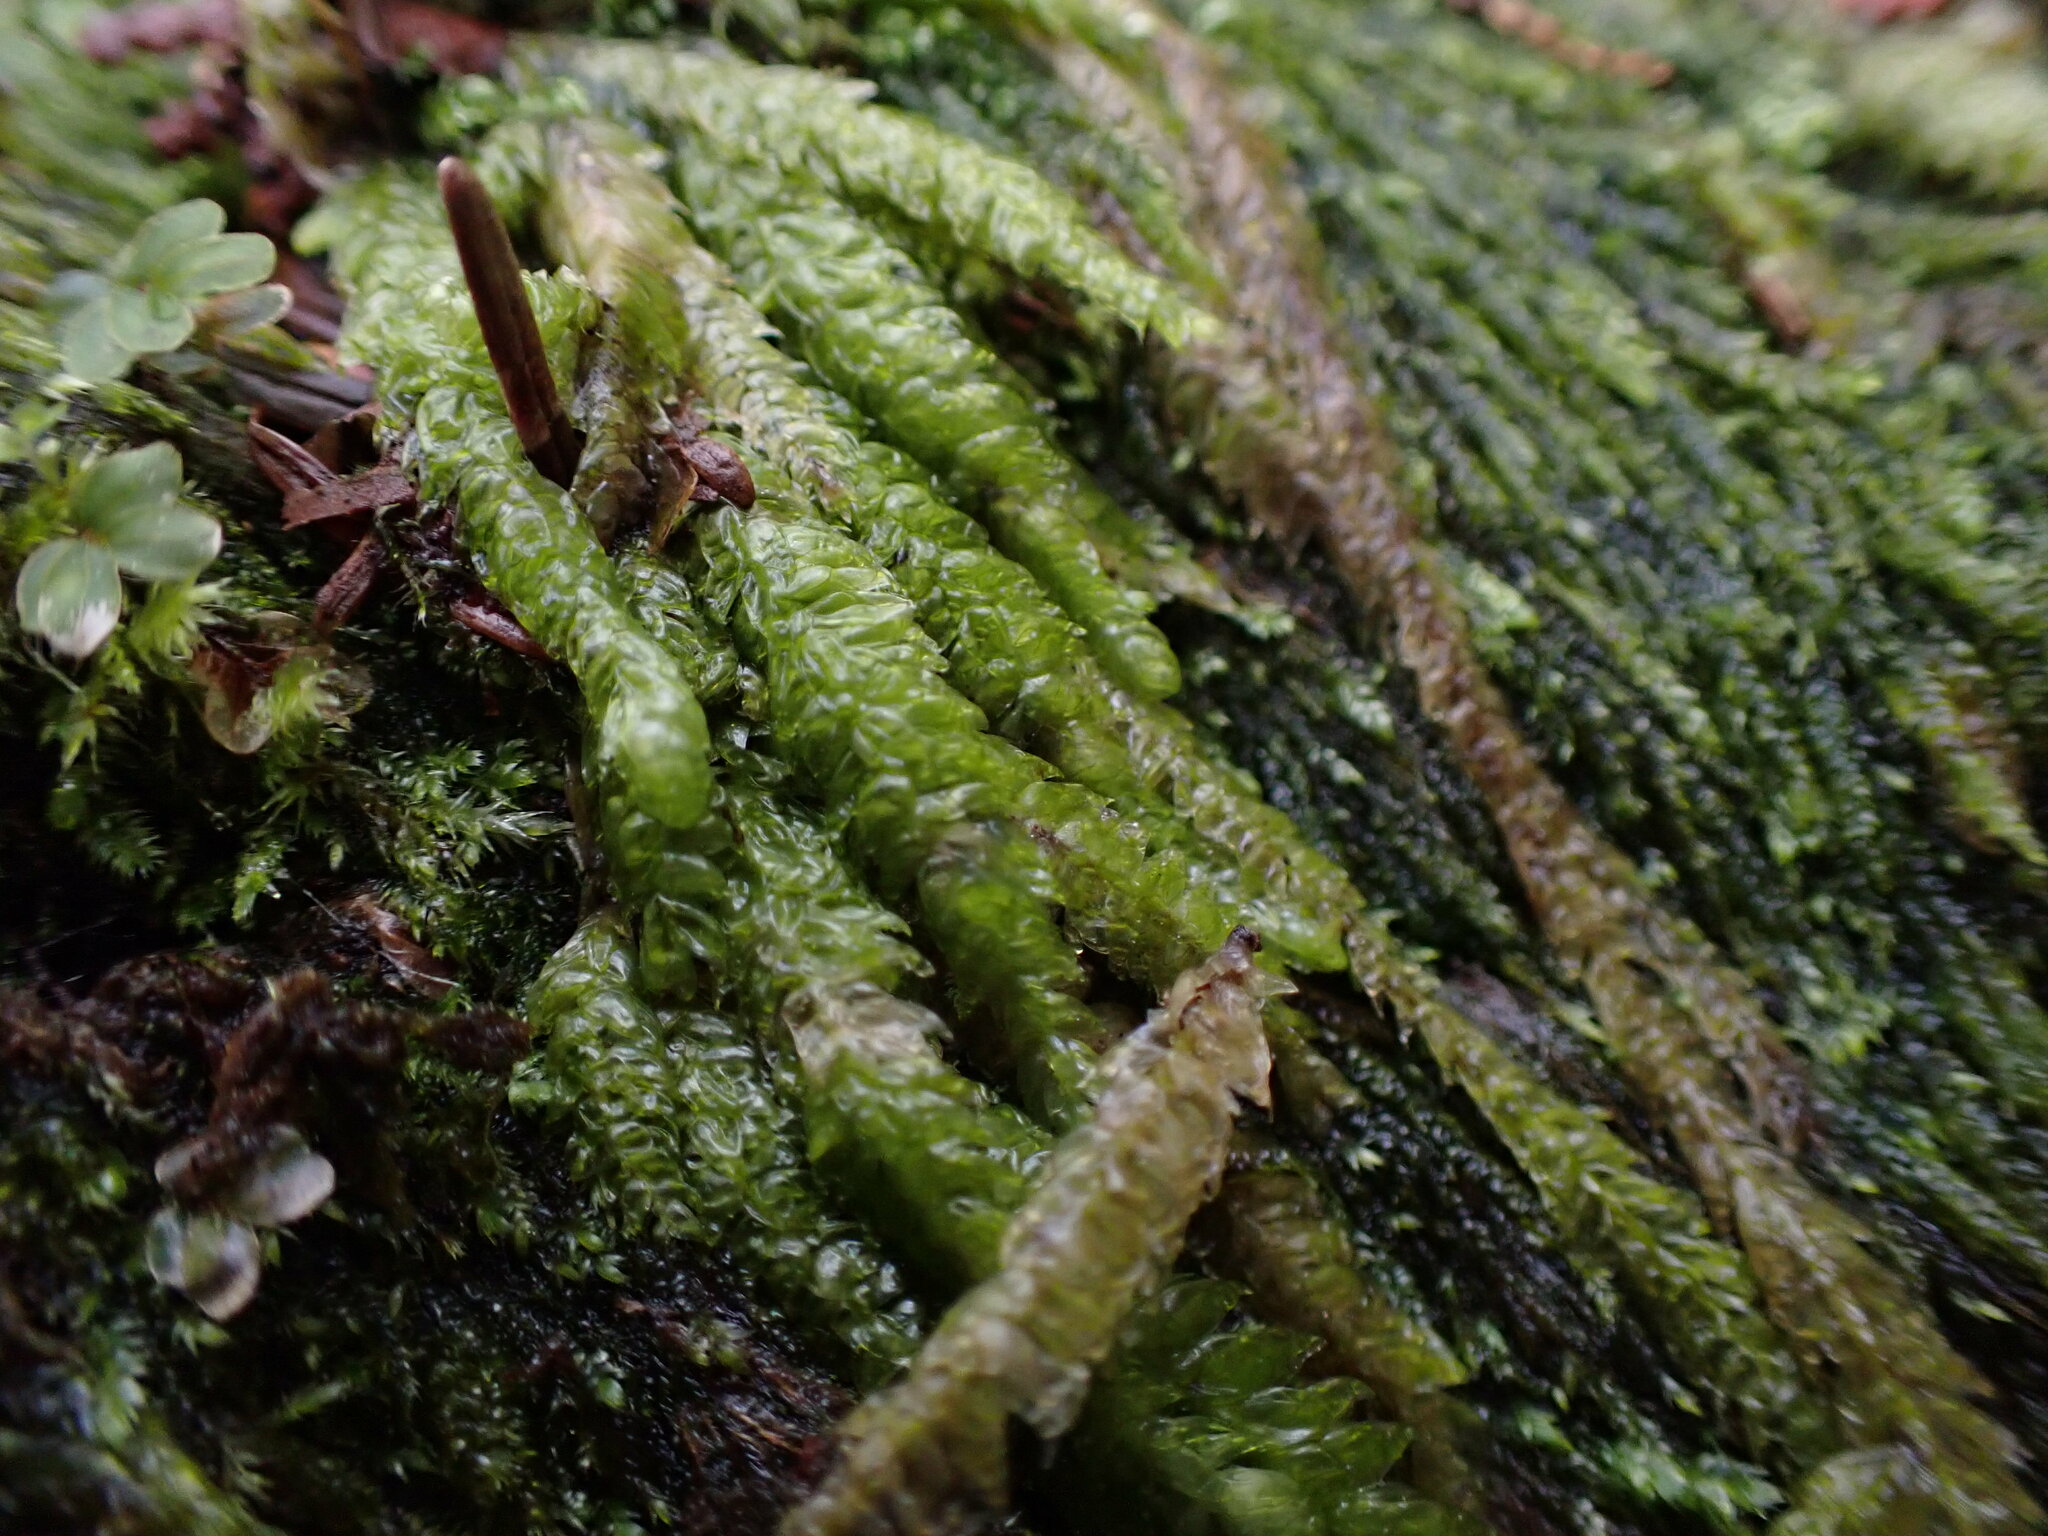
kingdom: Plantae
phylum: Bryophyta
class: Bryopsida
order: Hypnales
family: Plagiotheciaceae
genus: Plagiothecium
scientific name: Plagiothecium undulatum
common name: Waved silk-moss
